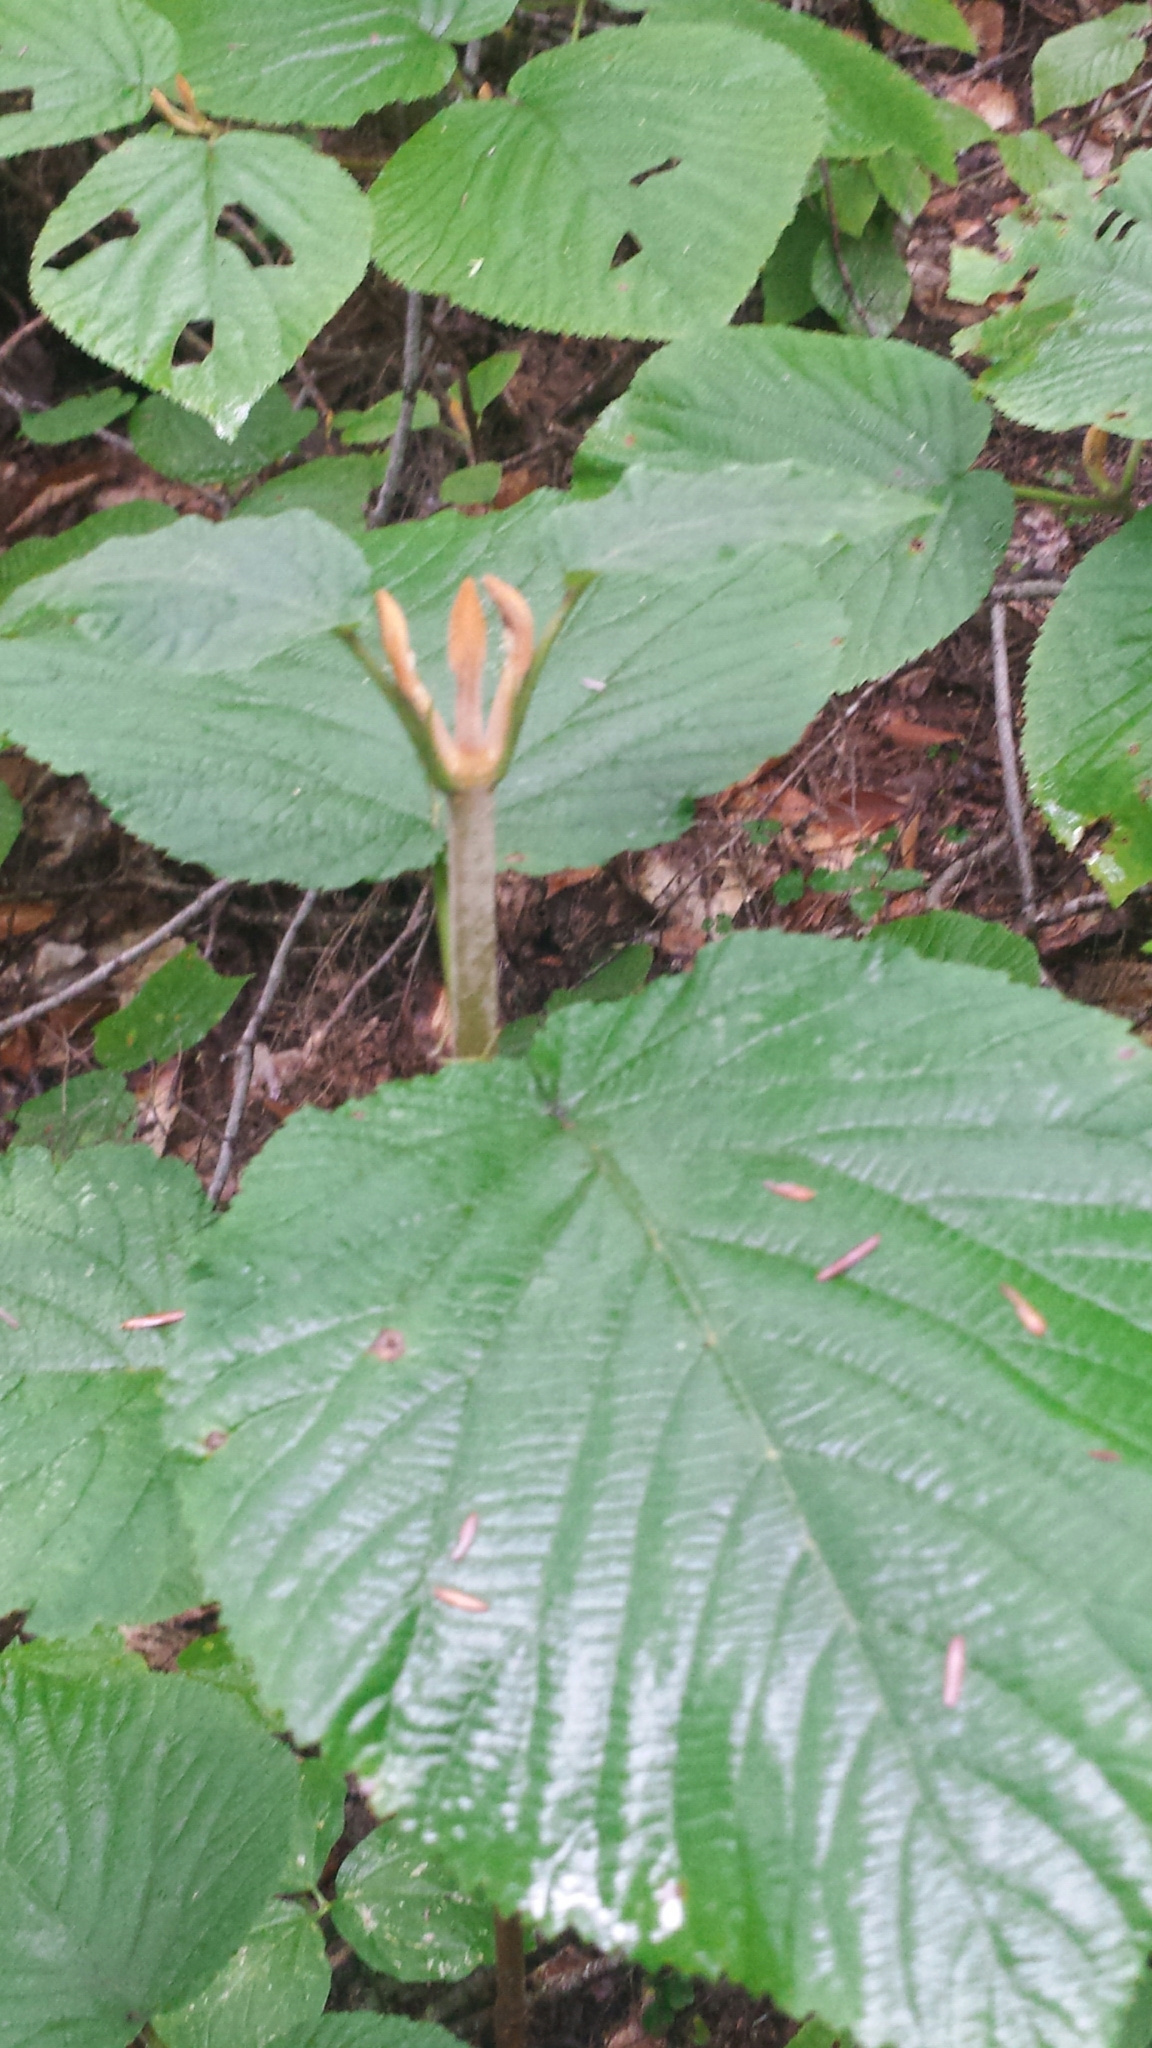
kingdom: Plantae
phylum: Tracheophyta
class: Magnoliopsida
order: Dipsacales
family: Viburnaceae
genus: Viburnum
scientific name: Viburnum lantanoides
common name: Hobblebush
